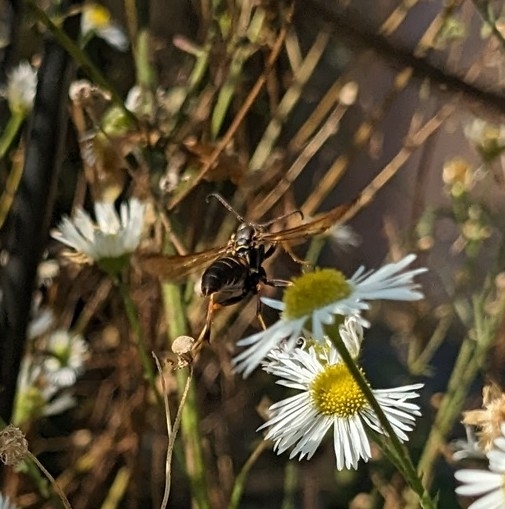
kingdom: Animalia
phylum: Arthropoda
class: Insecta
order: Hymenoptera
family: Eumenidae
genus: Polistes
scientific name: Polistes fuscatus
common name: Dark paper wasp
